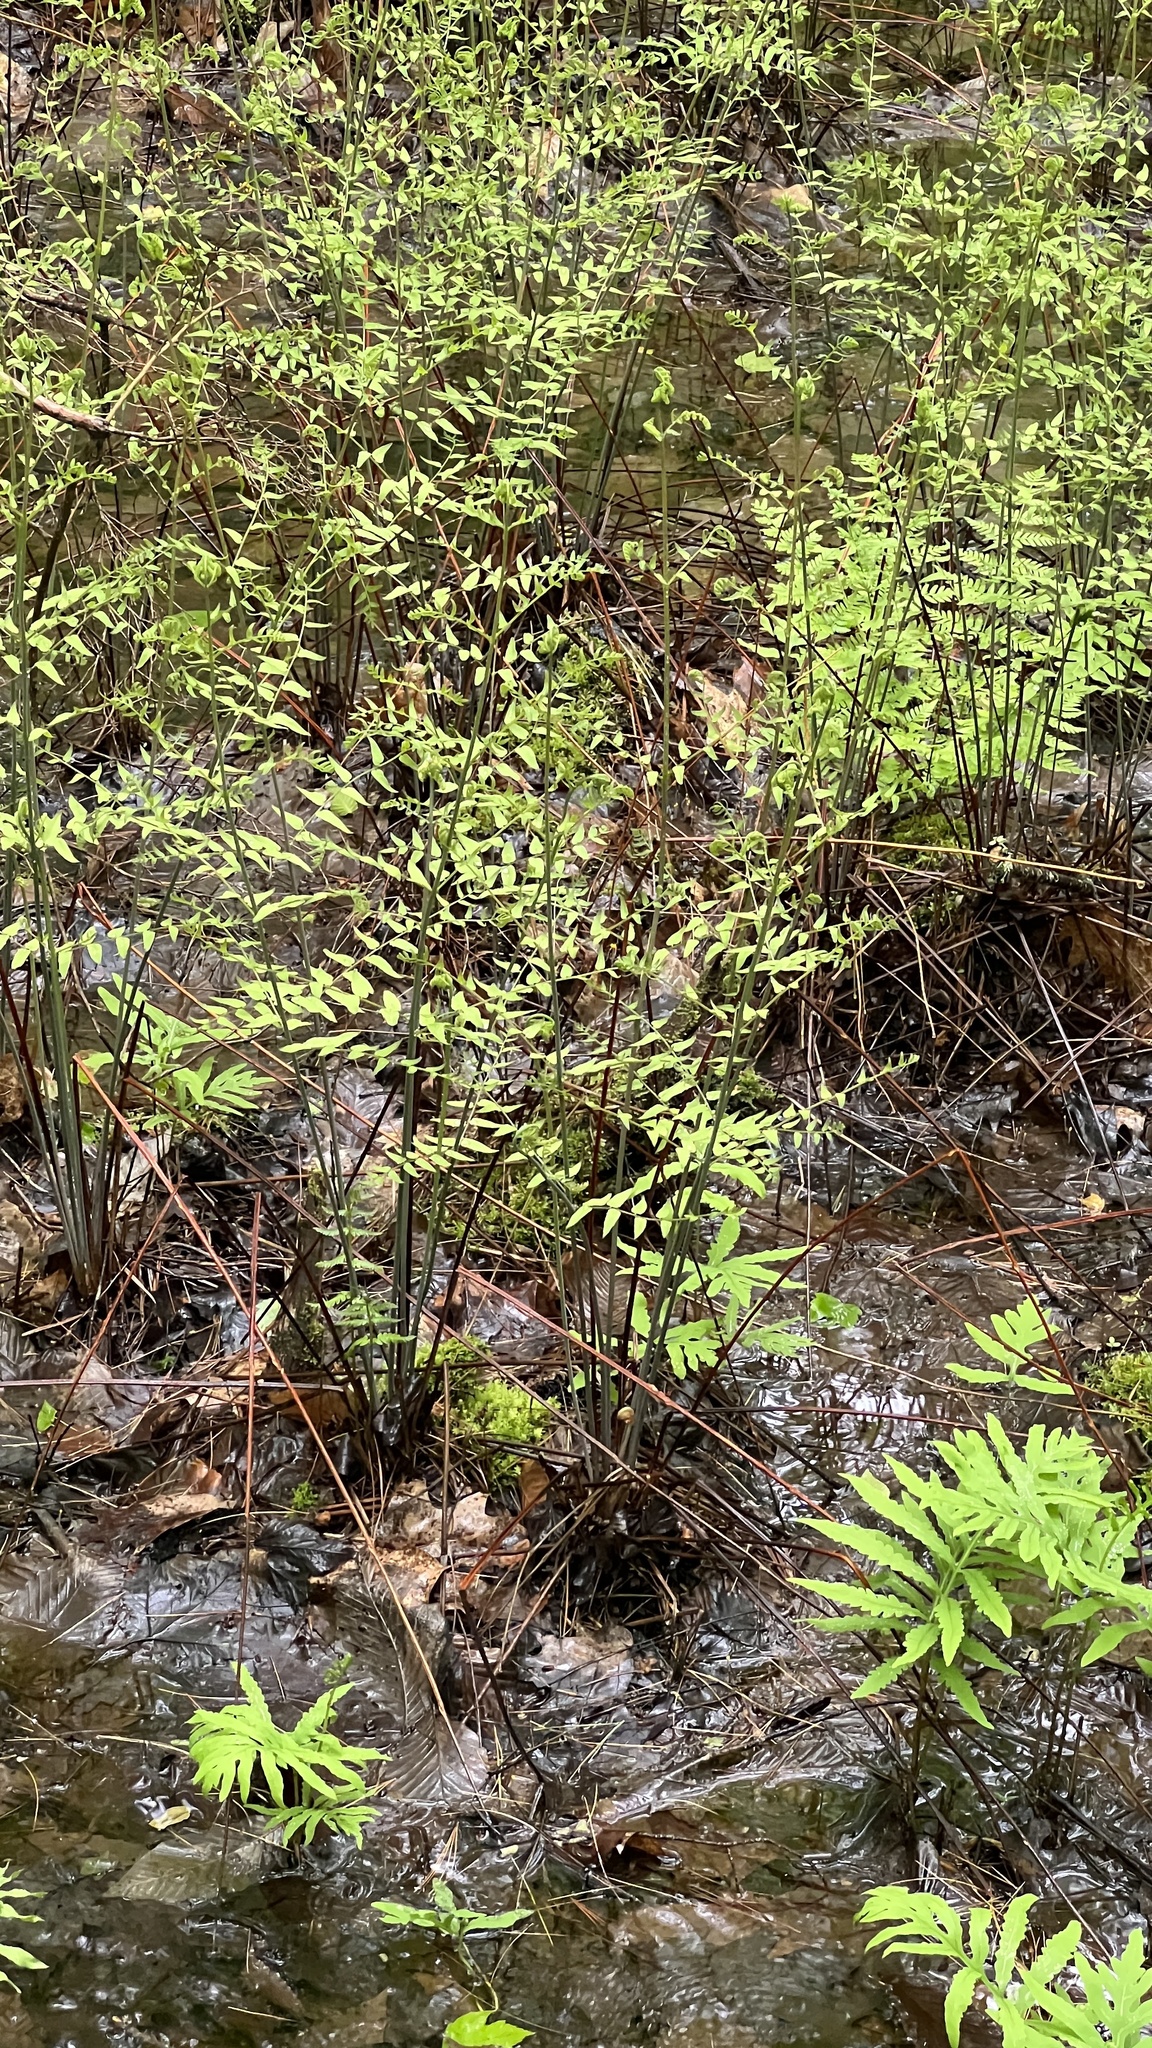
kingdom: Plantae
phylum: Tracheophyta
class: Polypodiopsida
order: Osmundales
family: Osmundaceae
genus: Osmunda
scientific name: Osmunda spectabilis
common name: American royal fern
